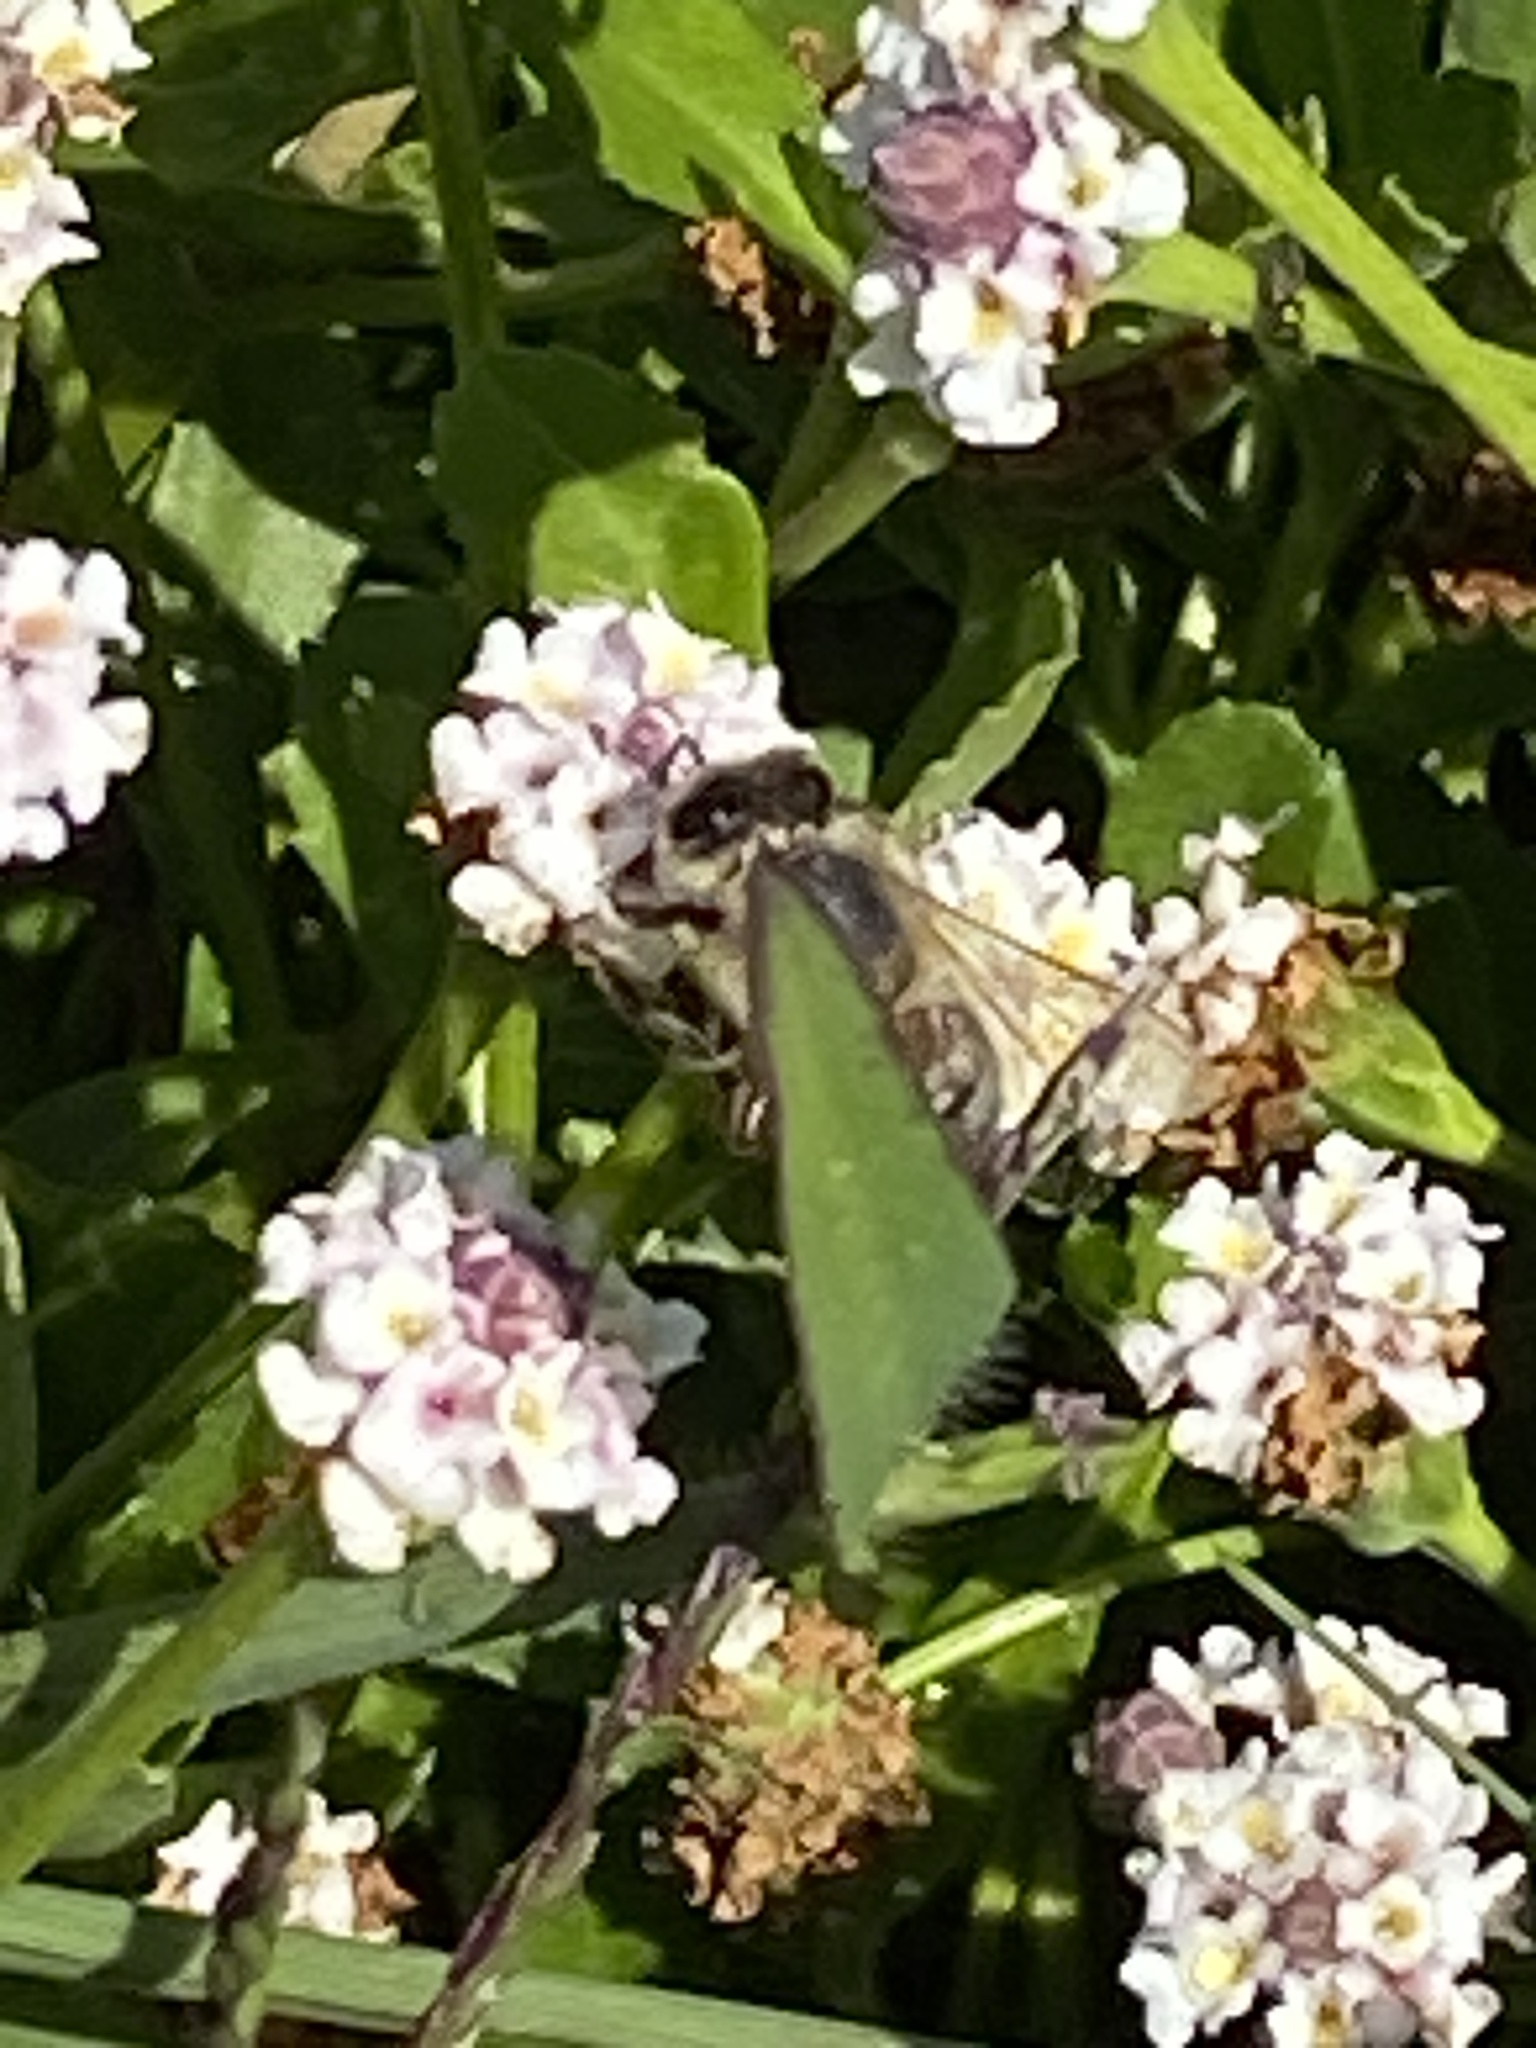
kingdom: Animalia
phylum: Arthropoda
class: Insecta
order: Hymenoptera
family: Apidae
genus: Apis
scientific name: Apis mellifera
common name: Honey bee
